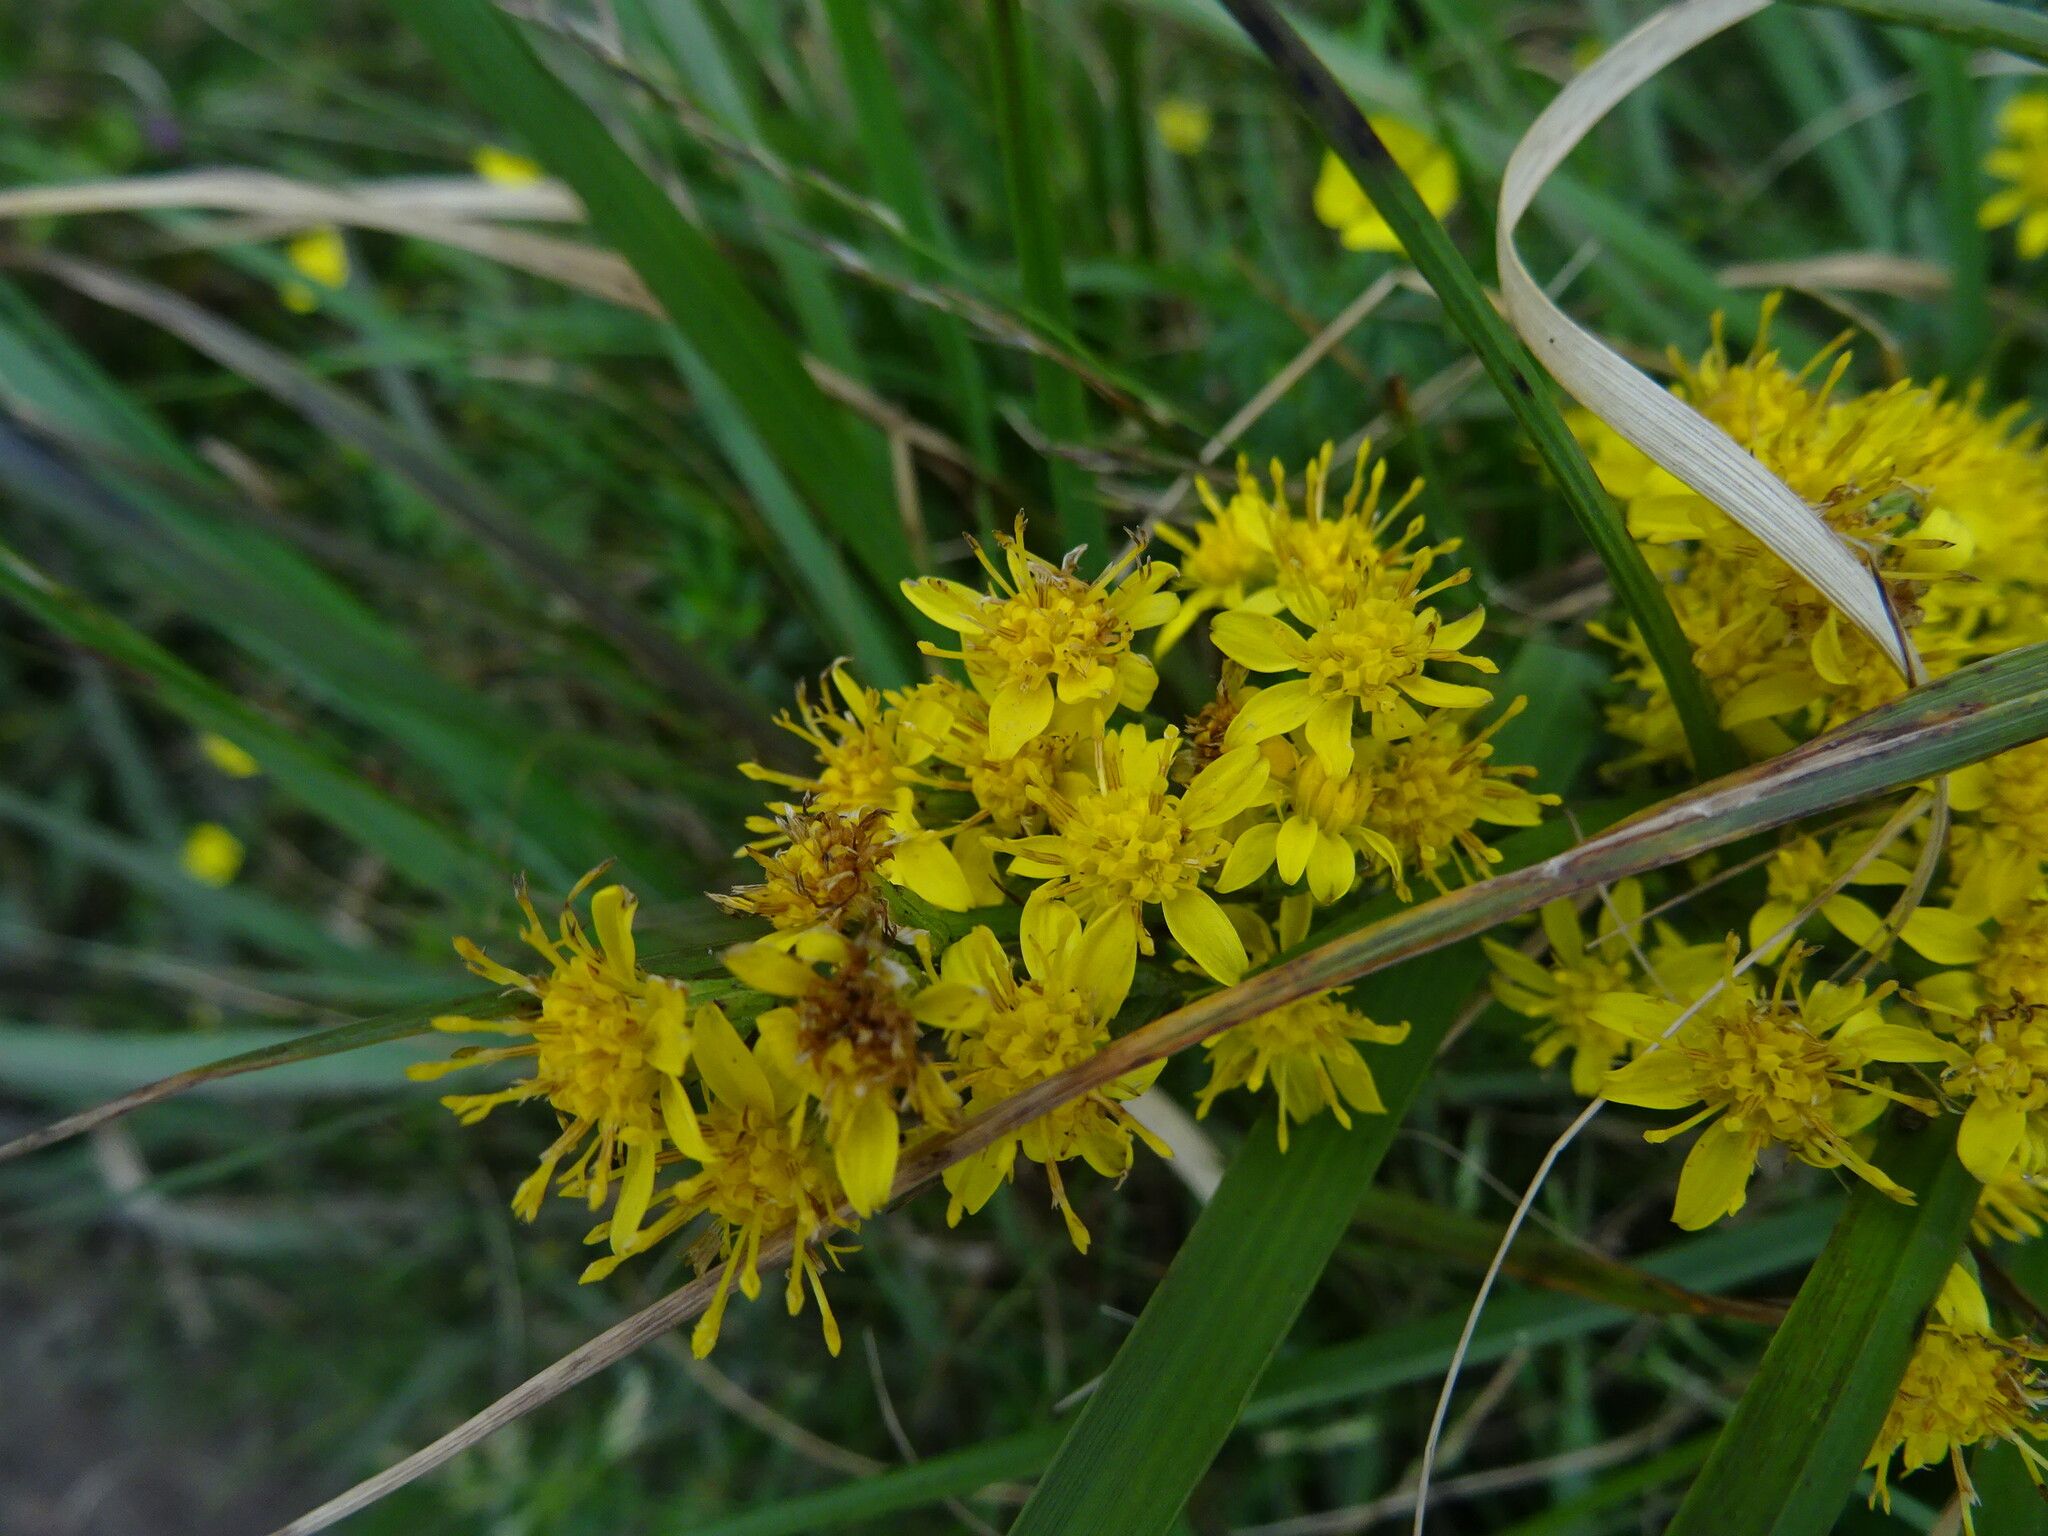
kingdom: Plantae
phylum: Tracheophyta
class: Magnoliopsida
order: Asterales
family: Asteraceae
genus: Solidago
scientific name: Solidago virgaurea
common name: Goldenrod
